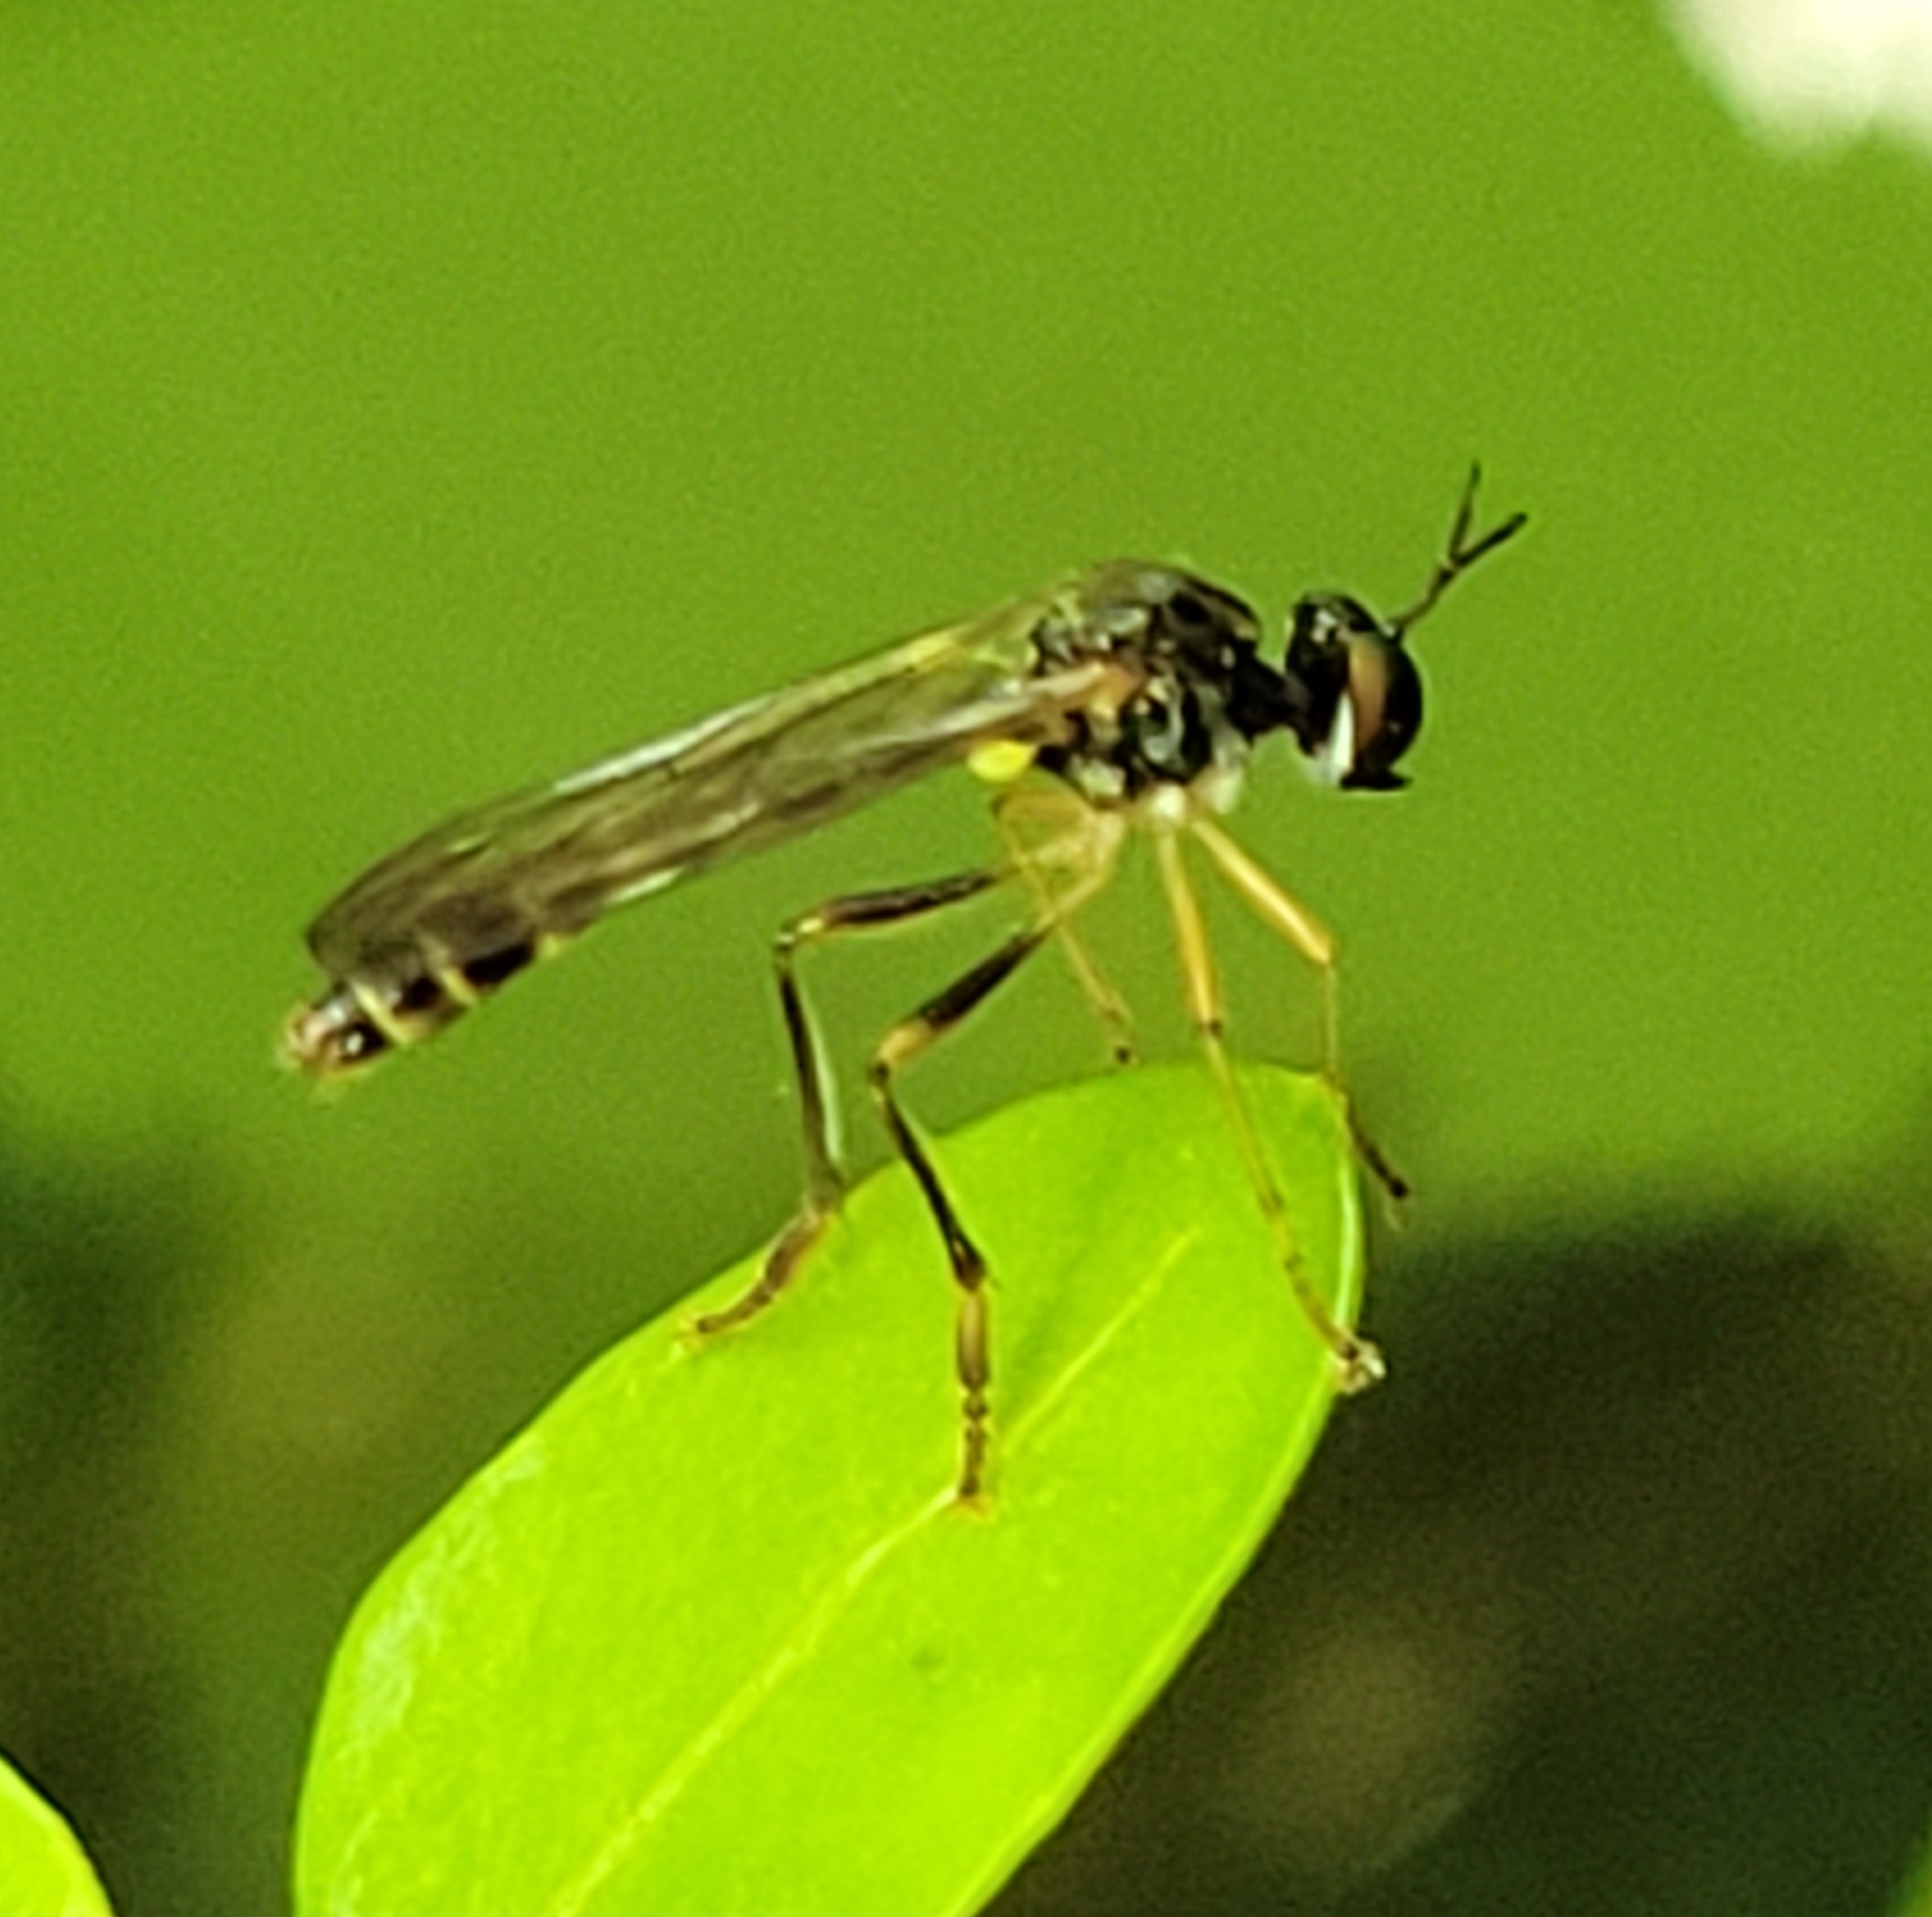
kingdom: Animalia
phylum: Arthropoda
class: Insecta
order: Diptera
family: Asilidae
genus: Dioctria
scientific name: Dioctria linearis
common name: Small yellow-legged robberfly
